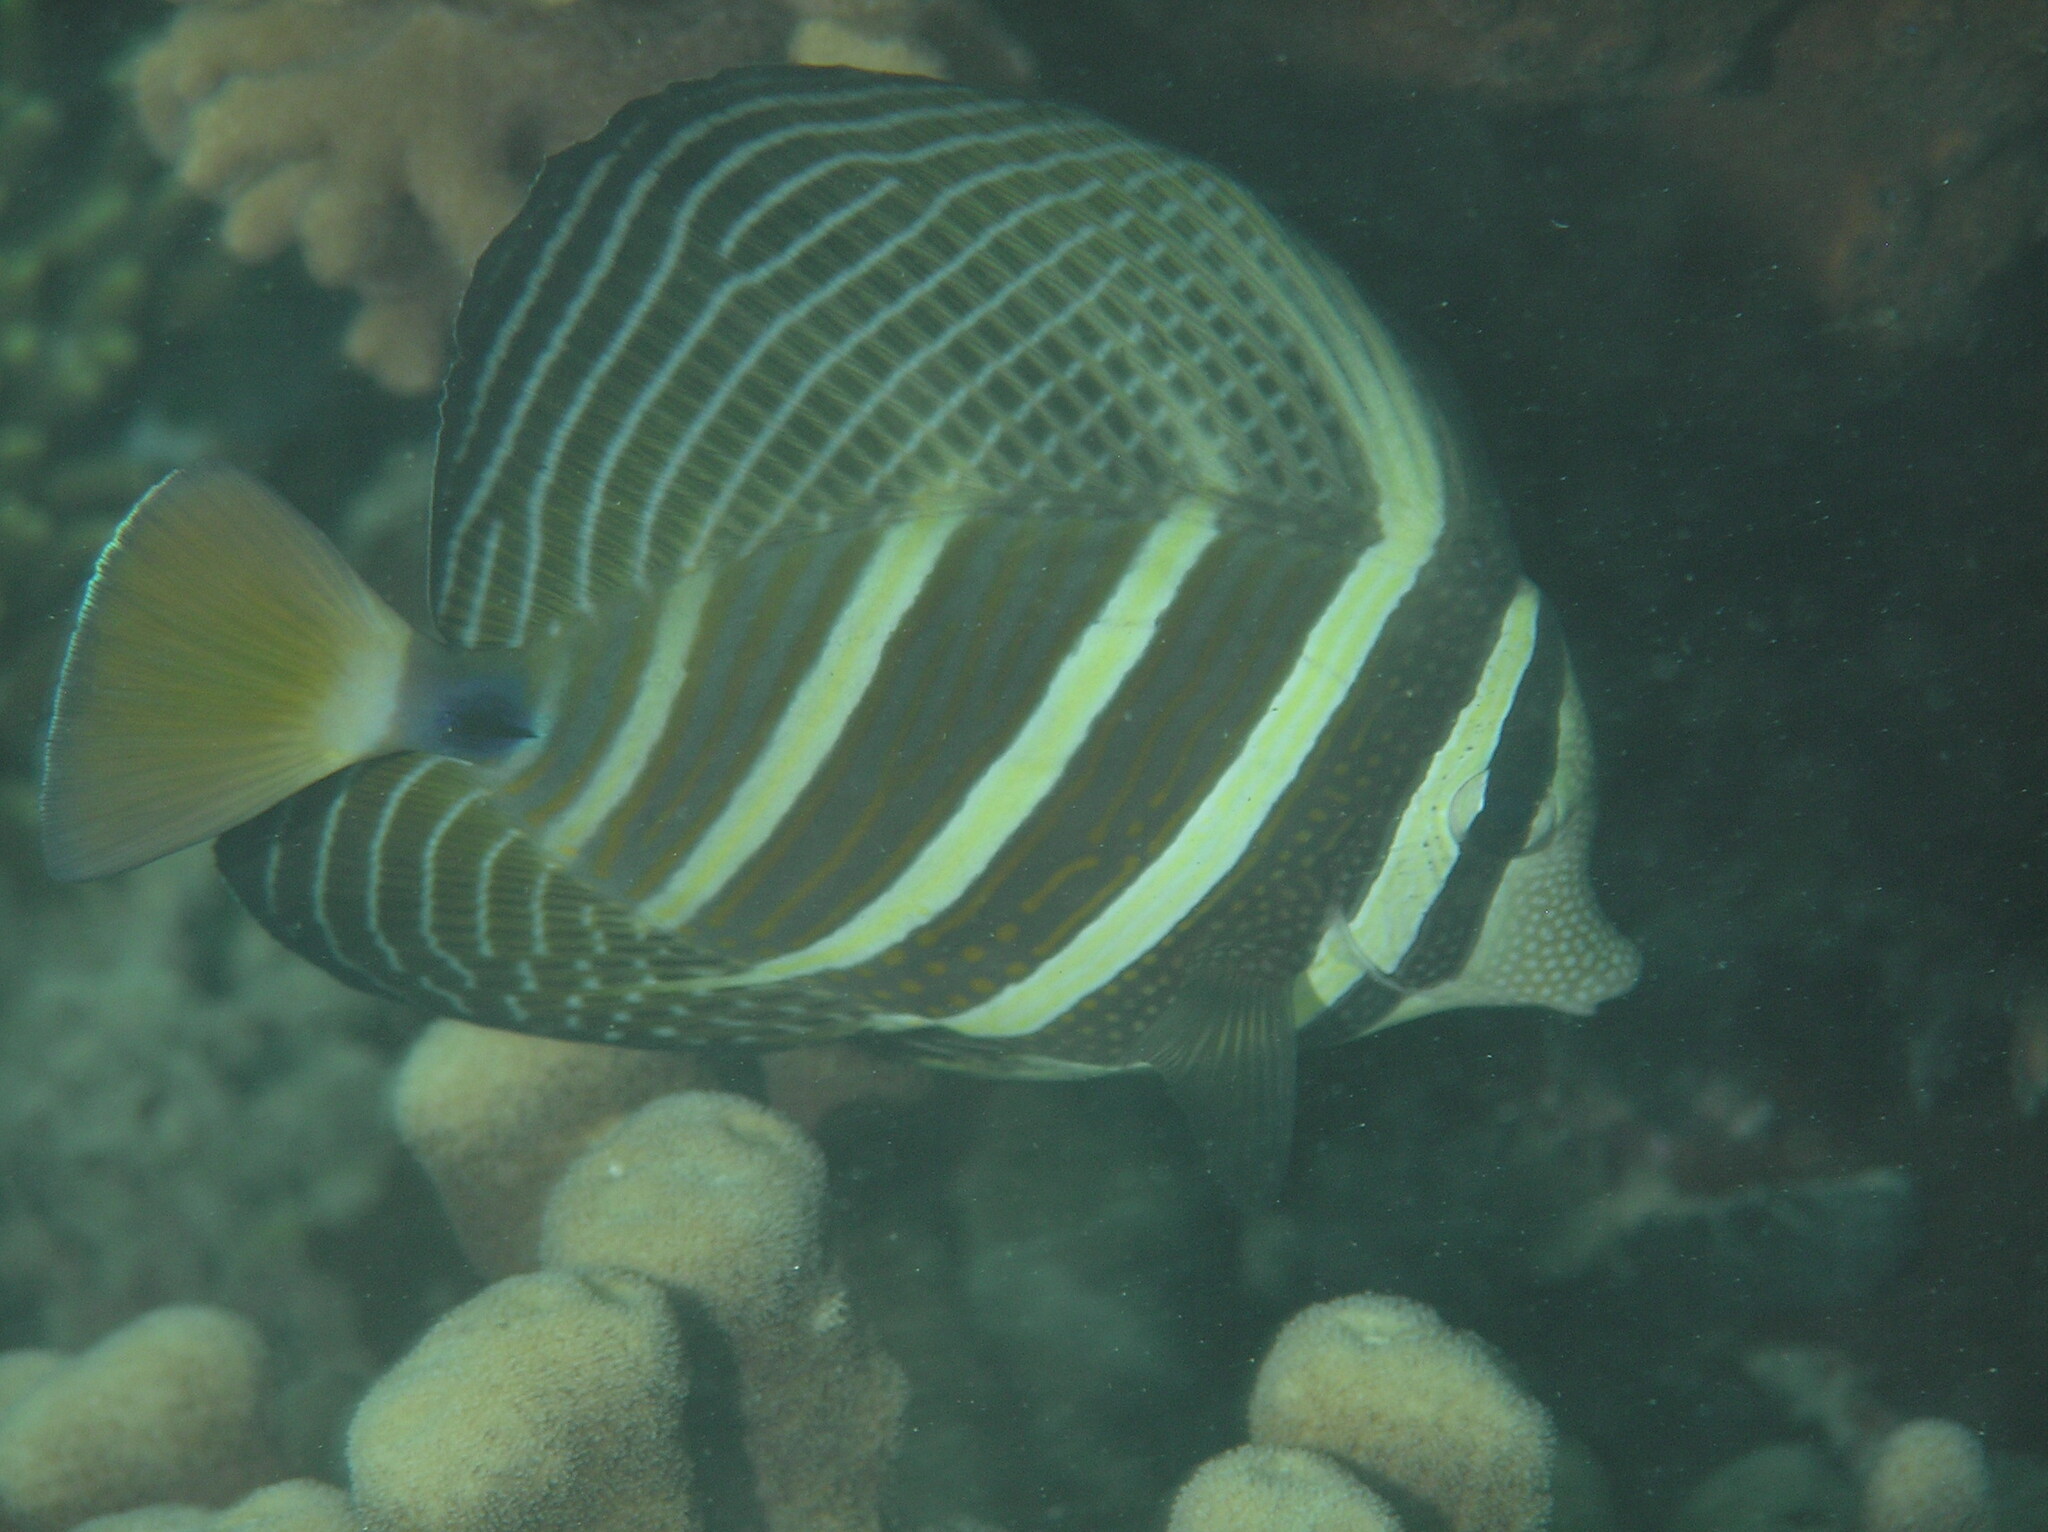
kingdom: Animalia
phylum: Chordata
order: Perciformes
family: Acanthuridae
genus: Zebrasoma
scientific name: Zebrasoma veliferum
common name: Sailfin surgeonfish
